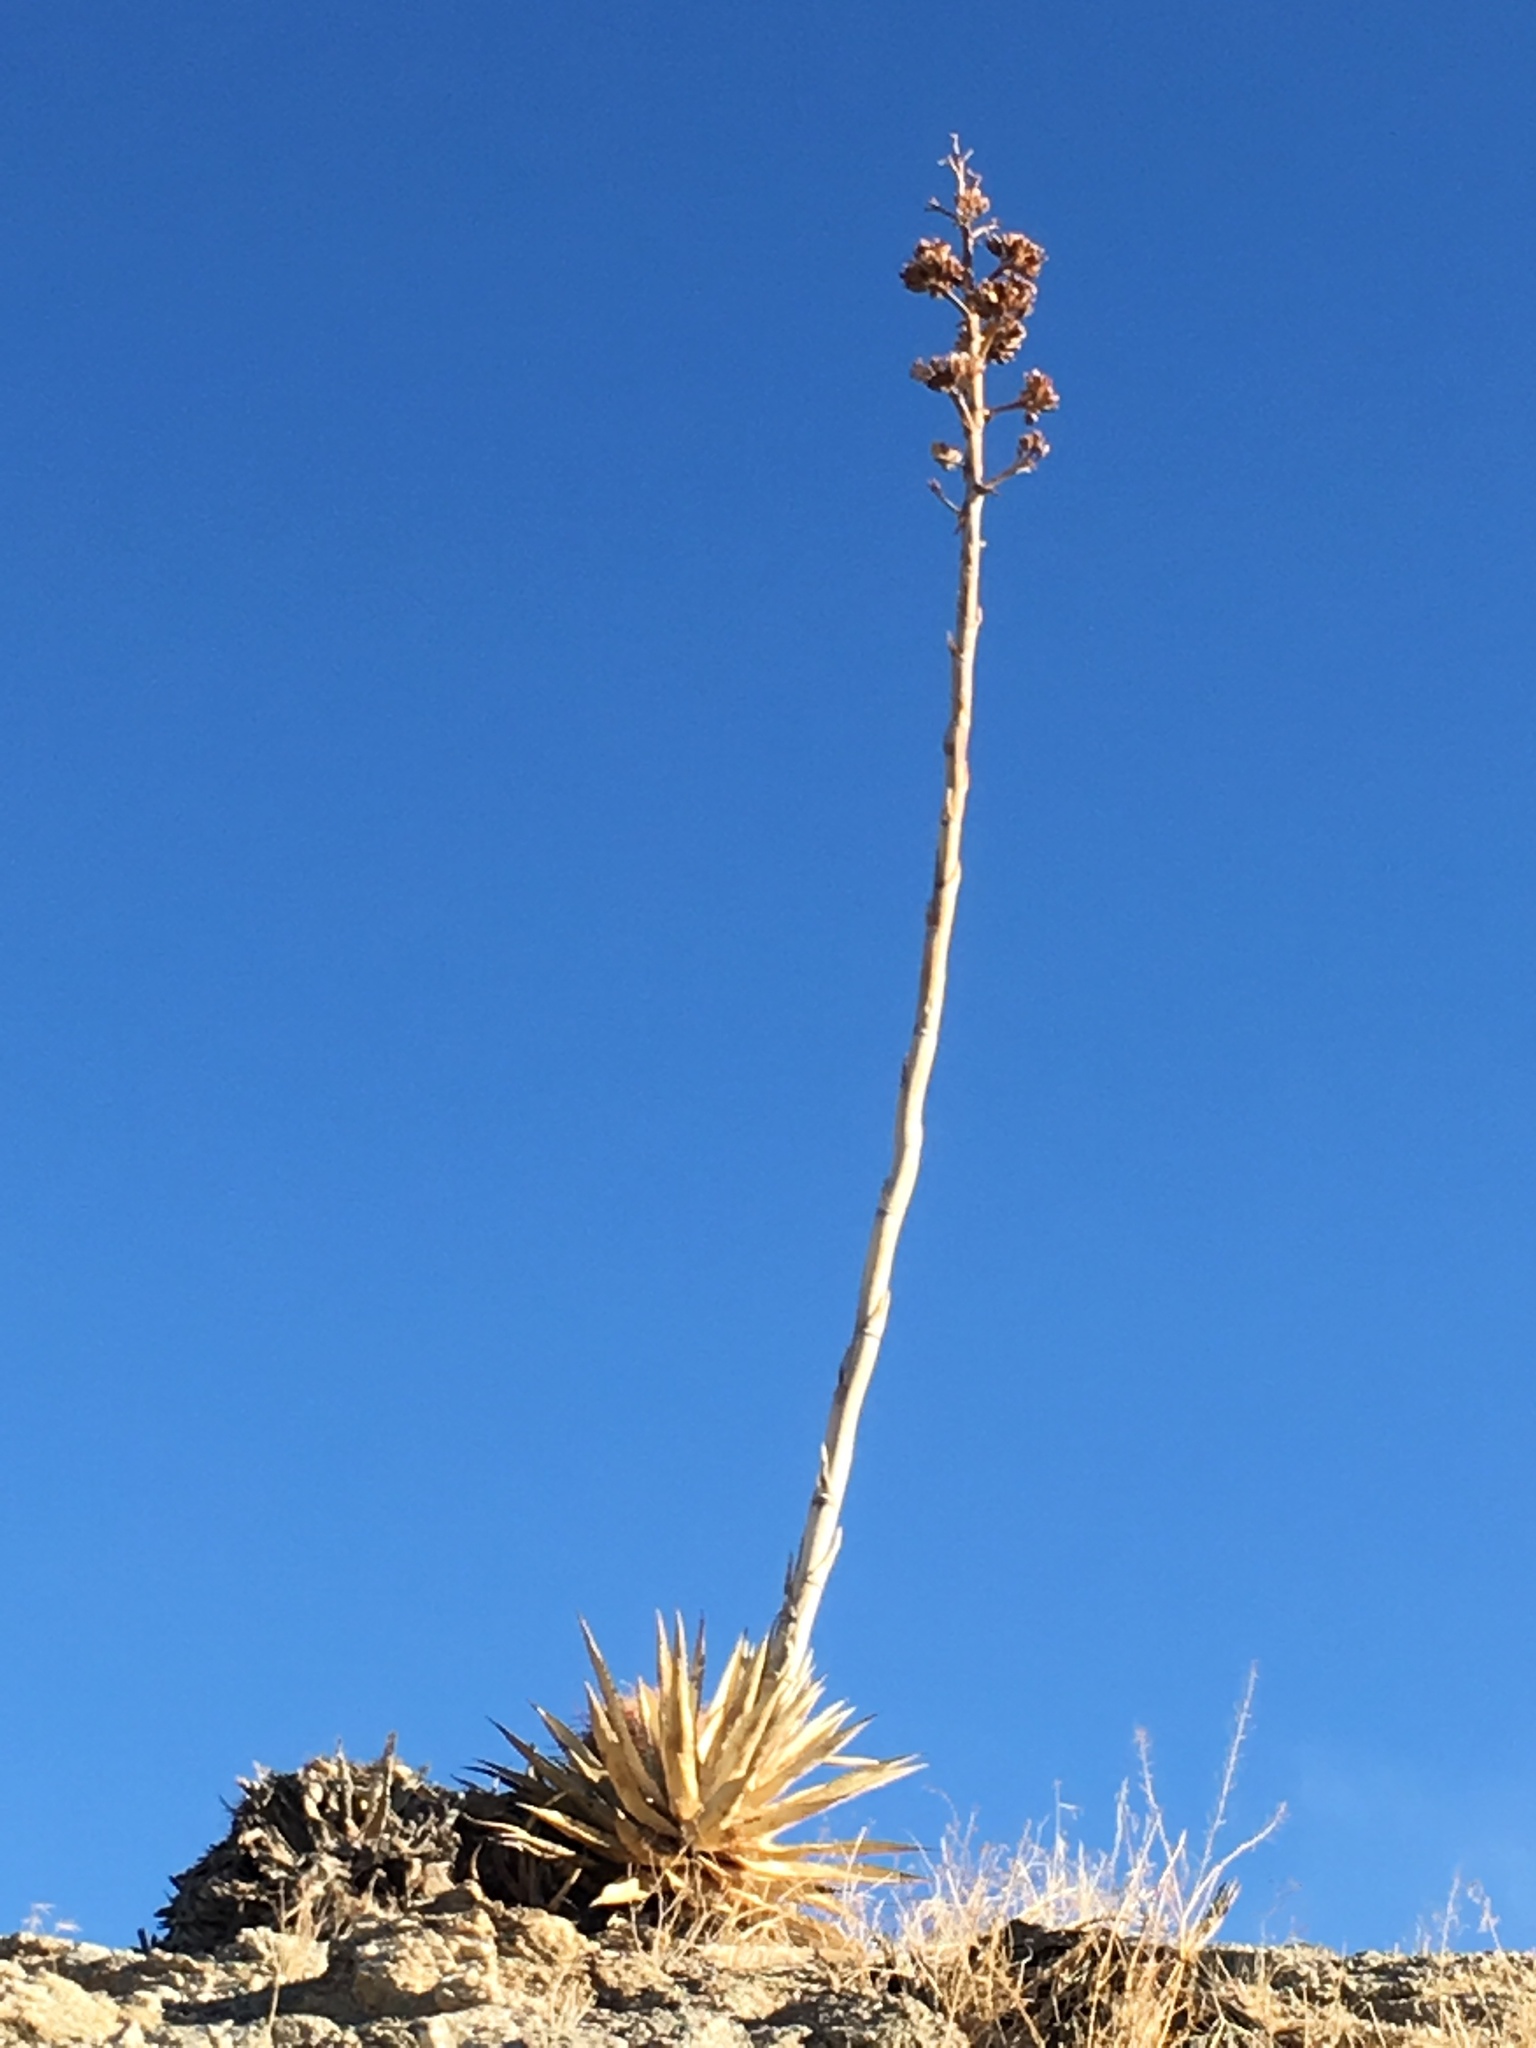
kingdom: Plantae
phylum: Tracheophyta
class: Liliopsida
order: Asparagales
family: Asparagaceae
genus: Agave
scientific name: Agave deserti
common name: Desert agave
